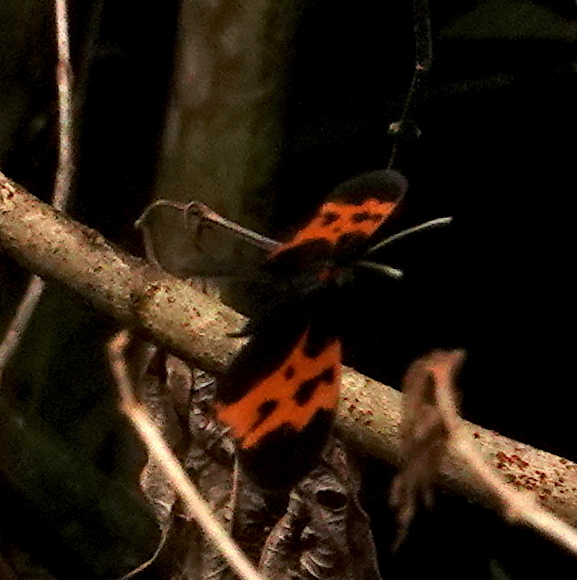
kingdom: Animalia
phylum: Arthropoda
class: Insecta
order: Lepidoptera
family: Nymphalidae
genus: Mechanitis
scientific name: Mechanitis mazaeus
